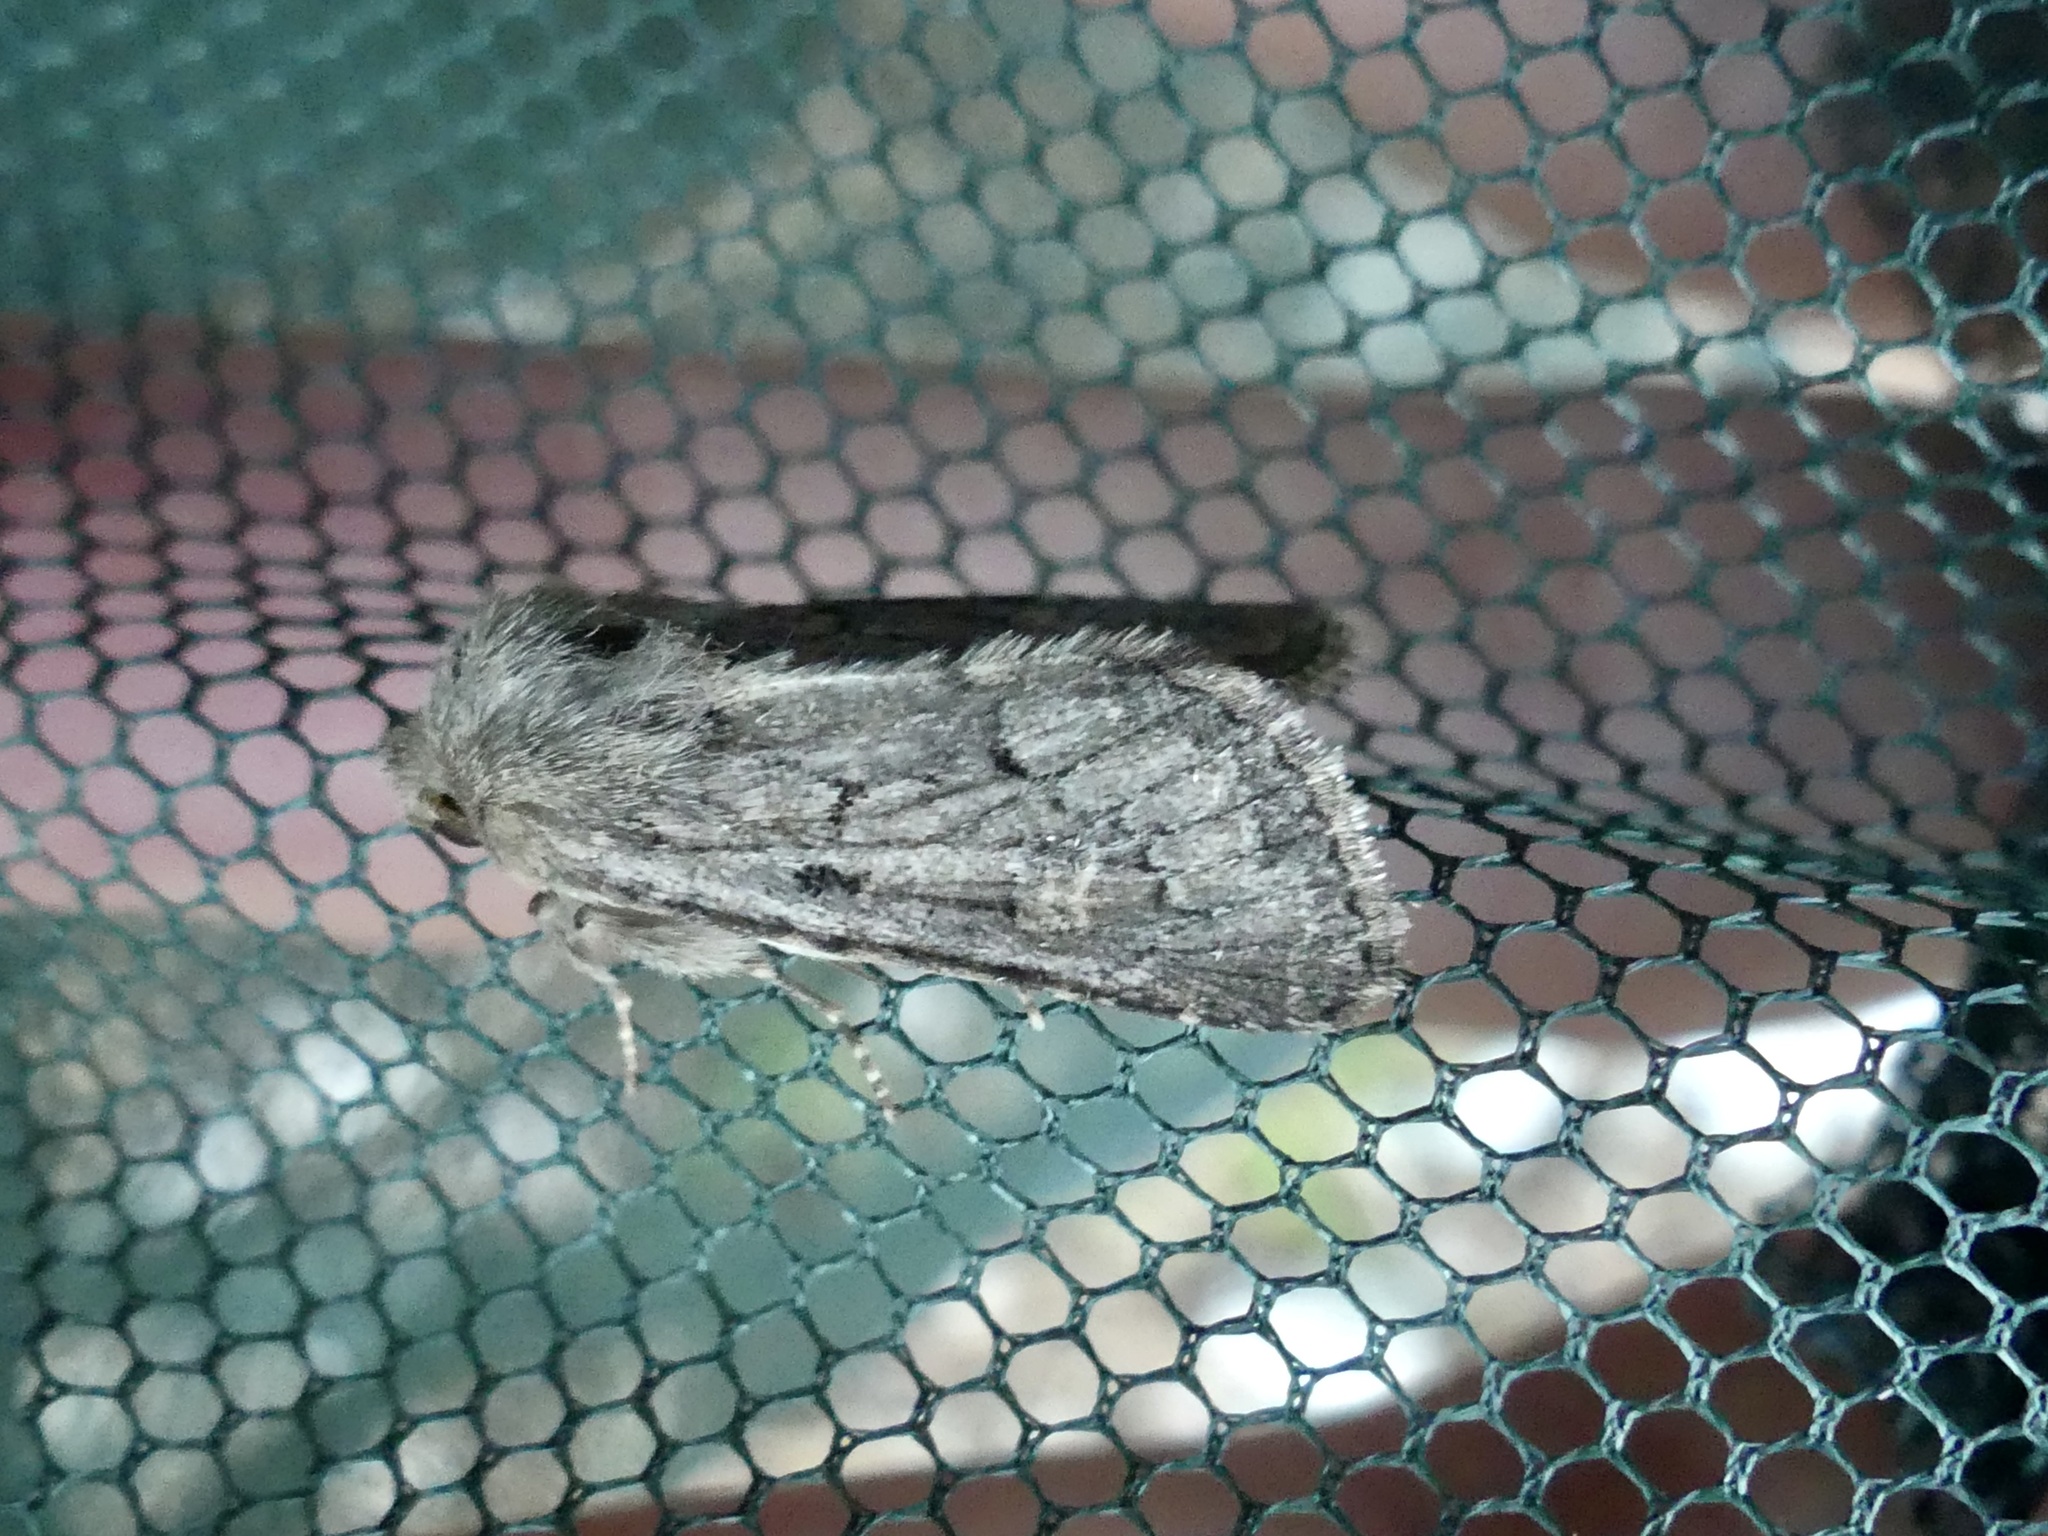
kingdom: Animalia
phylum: Arthropoda
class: Insecta
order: Lepidoptera
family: Noctuidae
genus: Luperina
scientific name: Luperina testacea
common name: Flounced rustic
